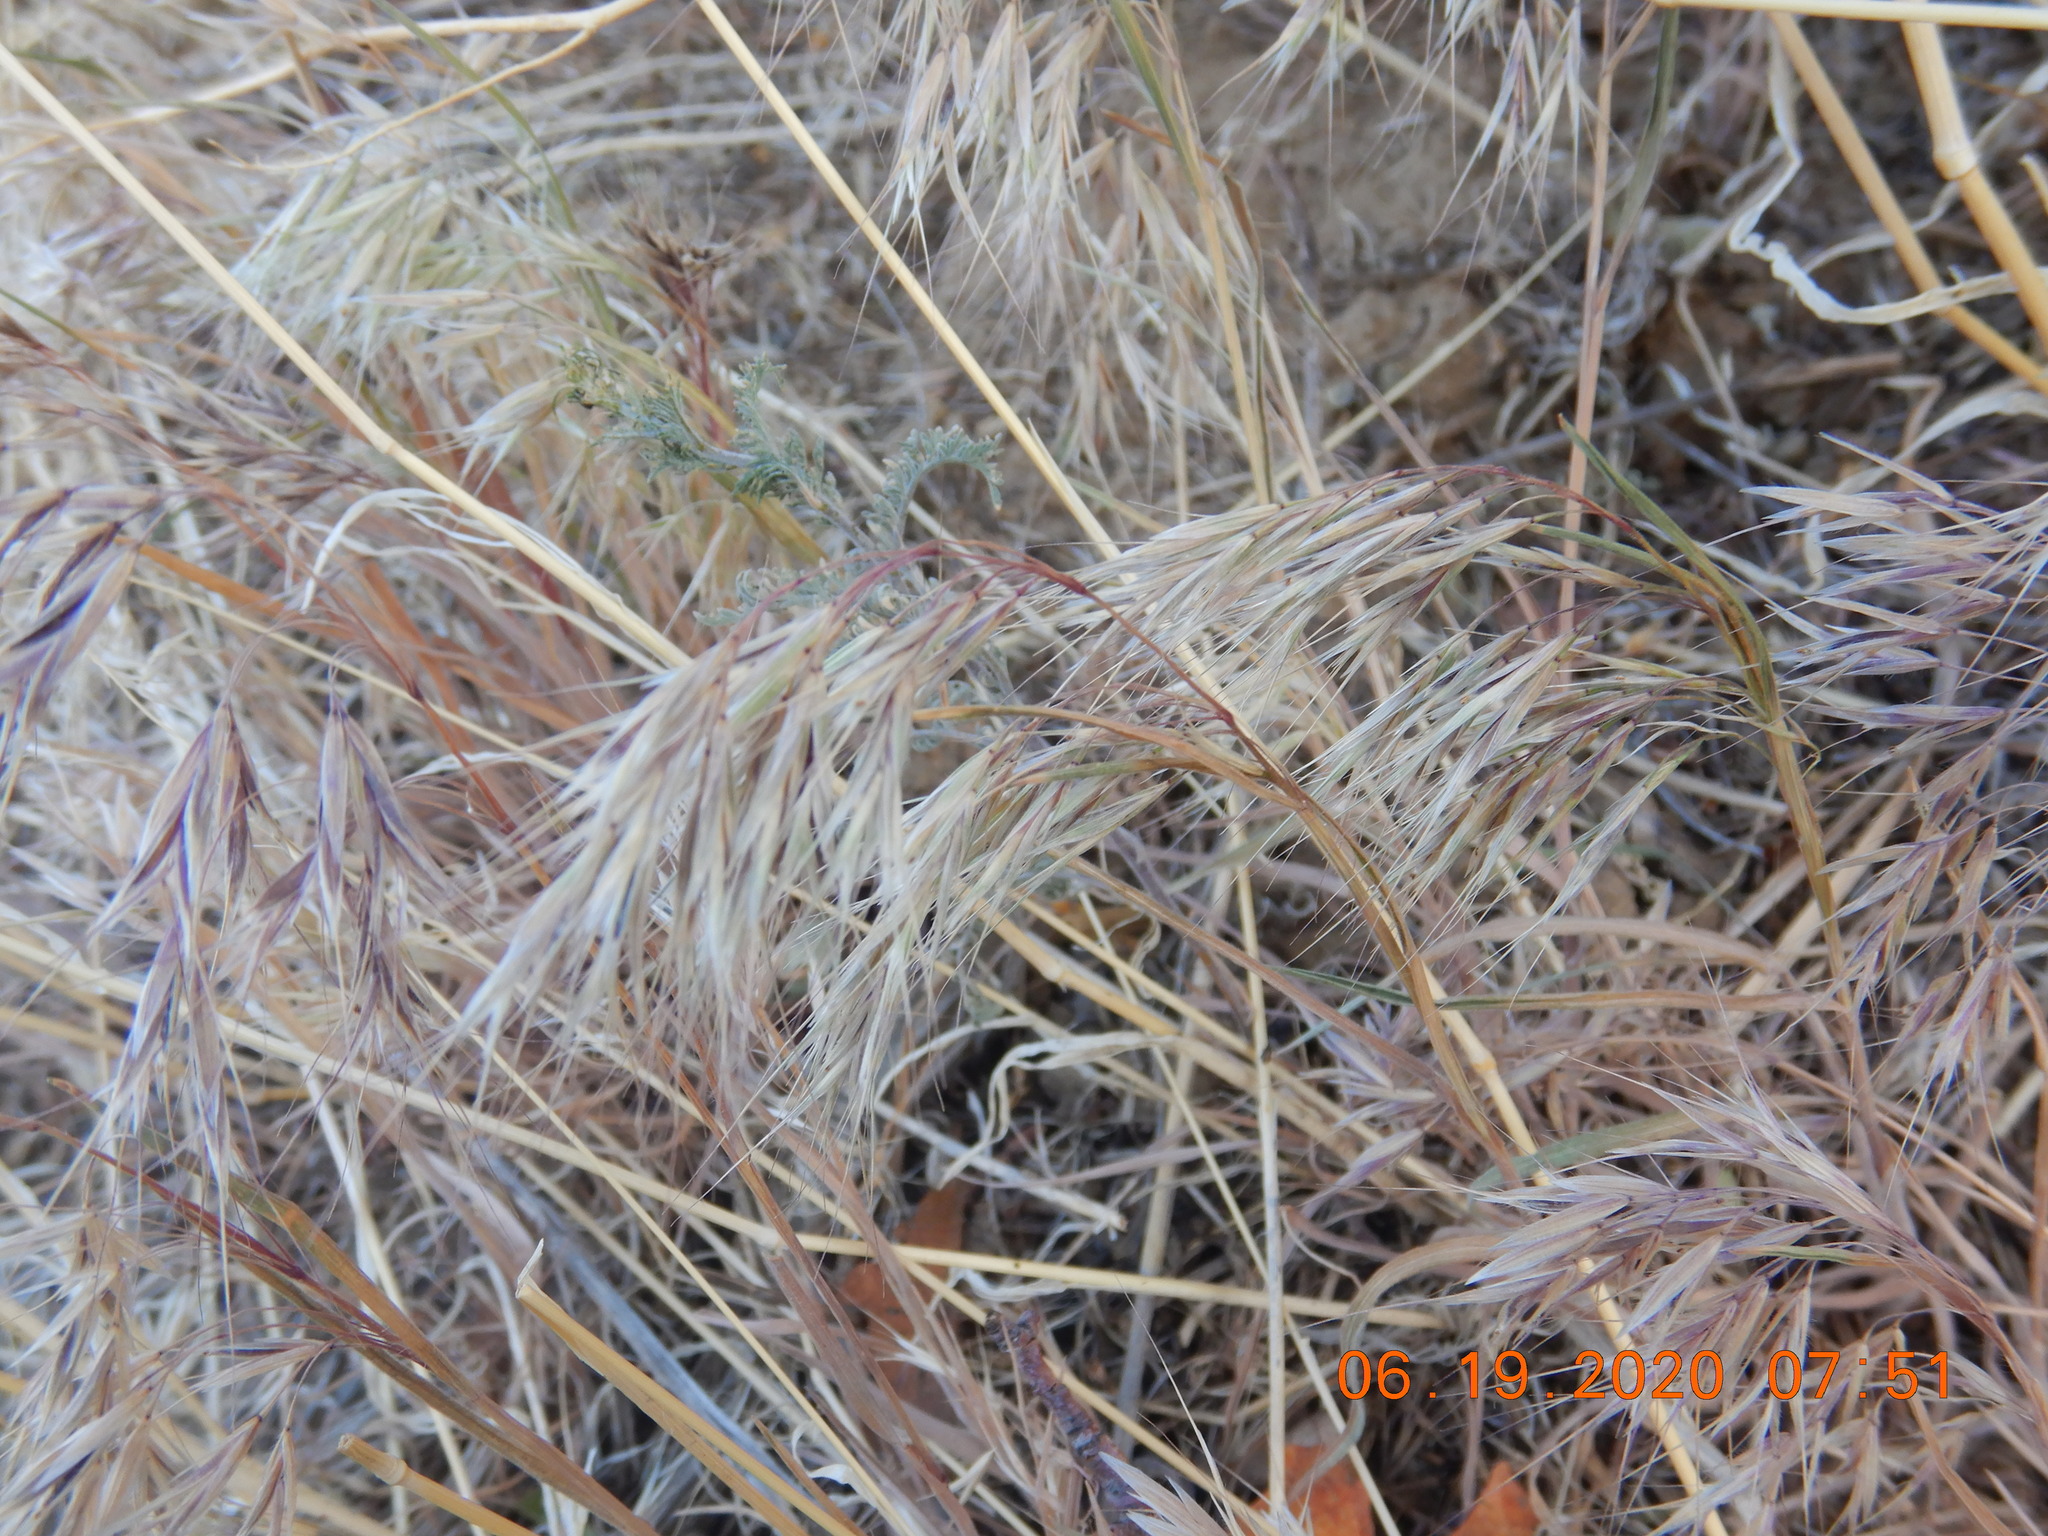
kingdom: Plantae
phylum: Tracheophyta
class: Liliopsida
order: Poales
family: Poaceae
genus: Bromus
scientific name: Bromus tectorum
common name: Cheatgrass
